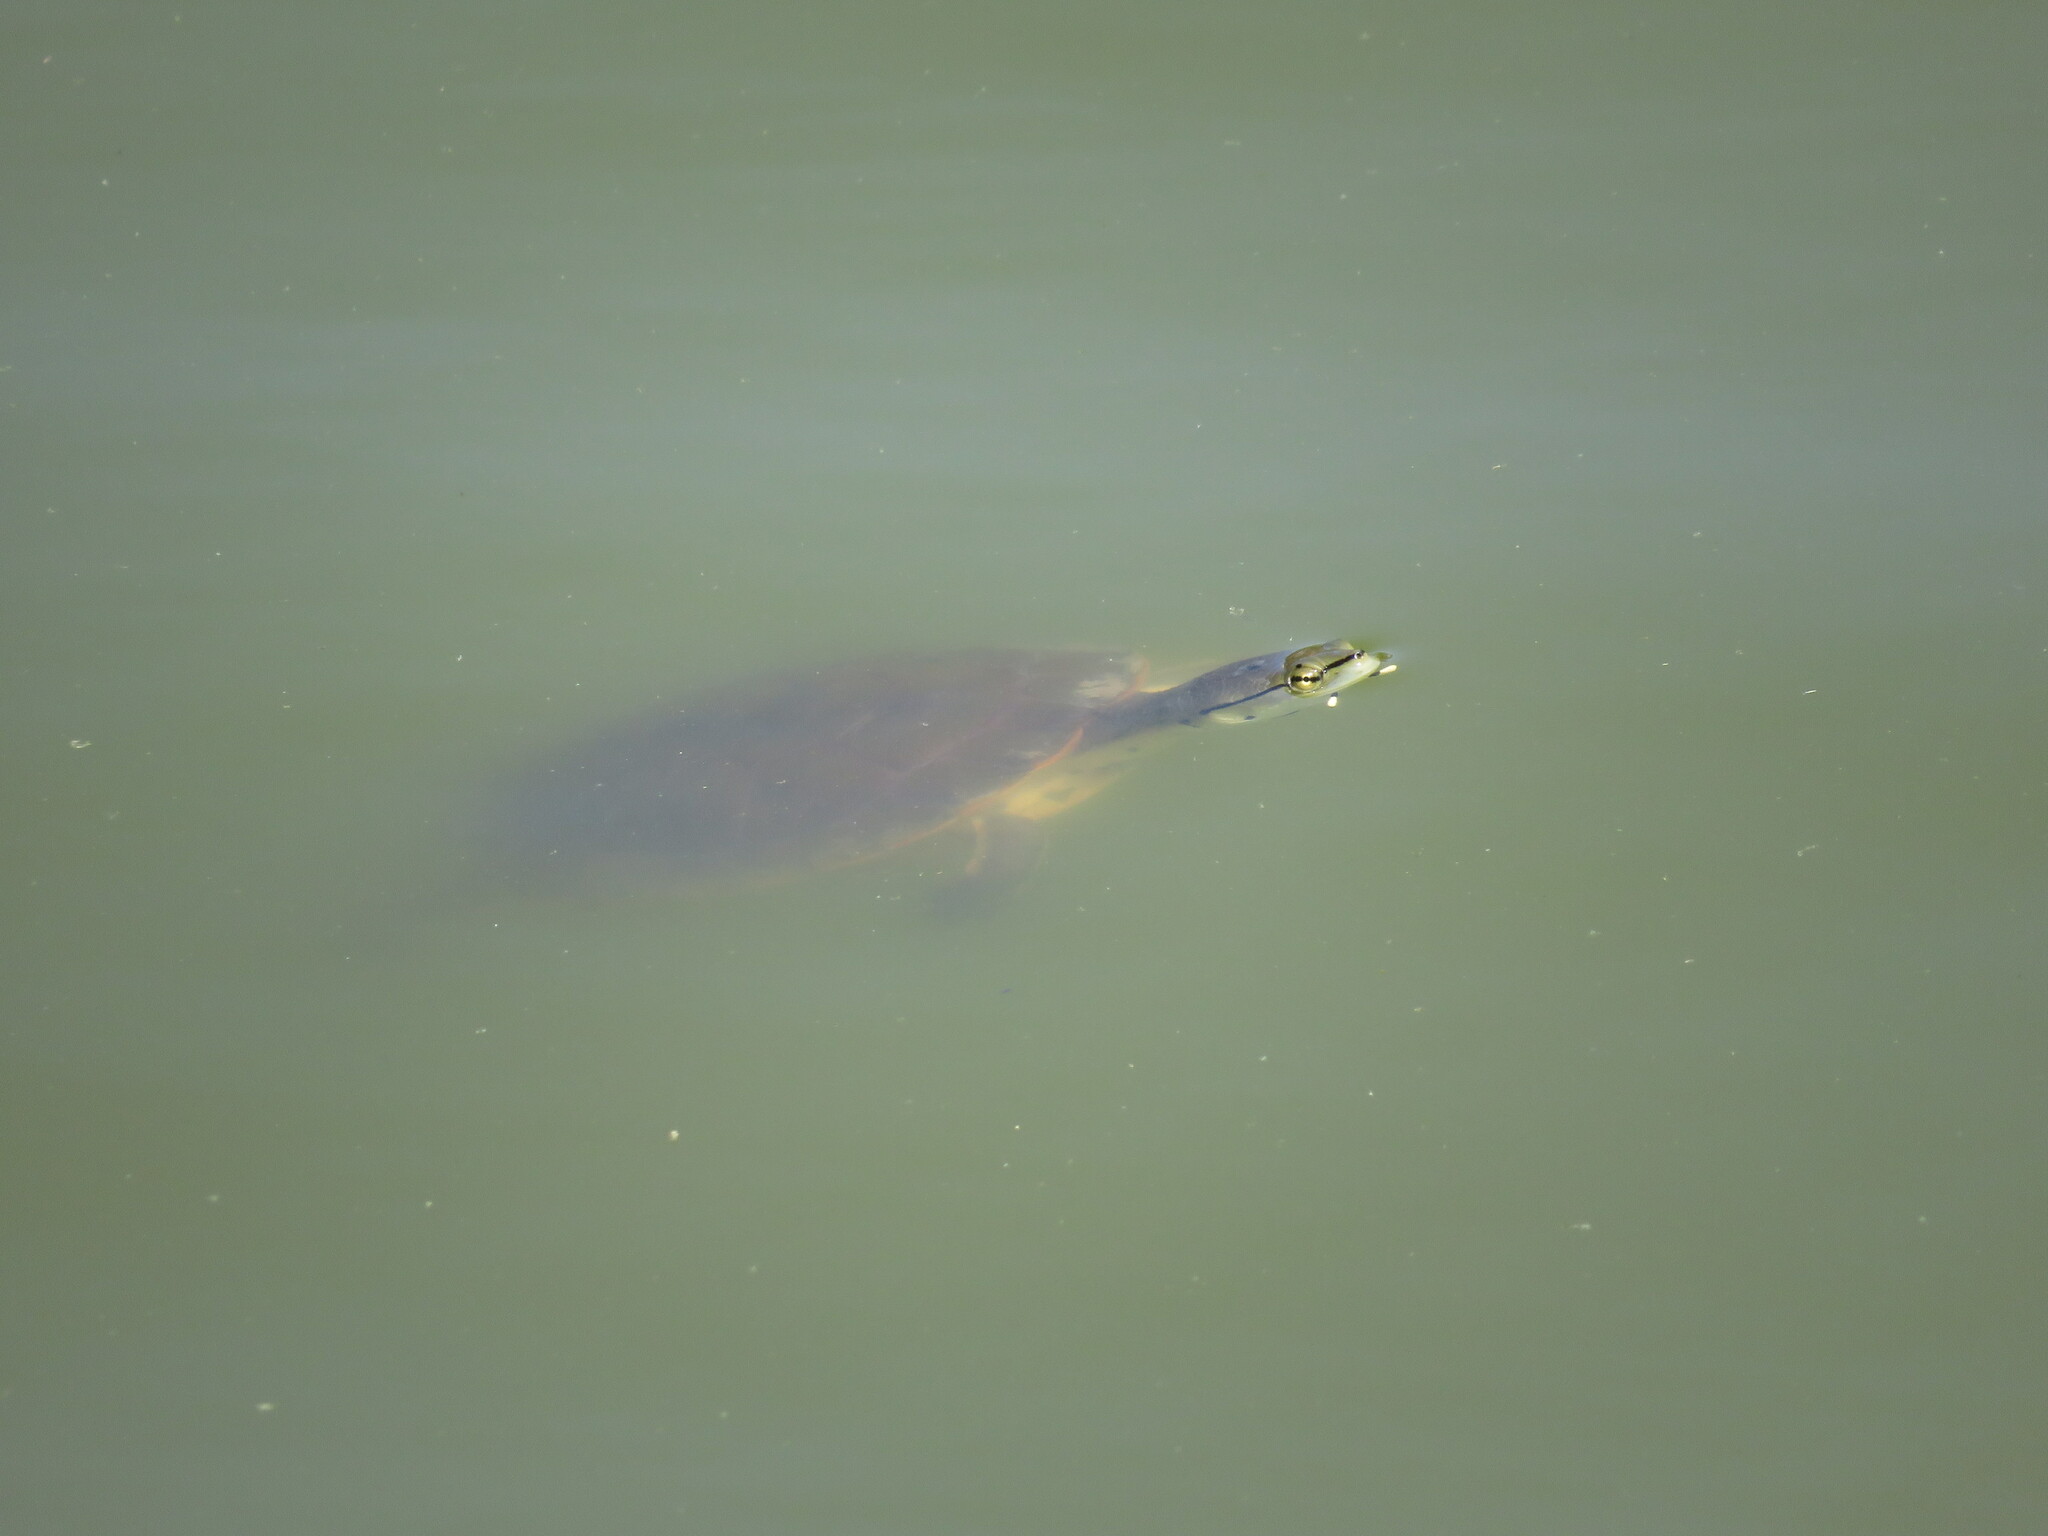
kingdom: Animalia
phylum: Chordata
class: Testudines
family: Chelidae
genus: Phrynops
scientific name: Phrynops hilarii
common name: Side-necked turtle of saint hillaire
